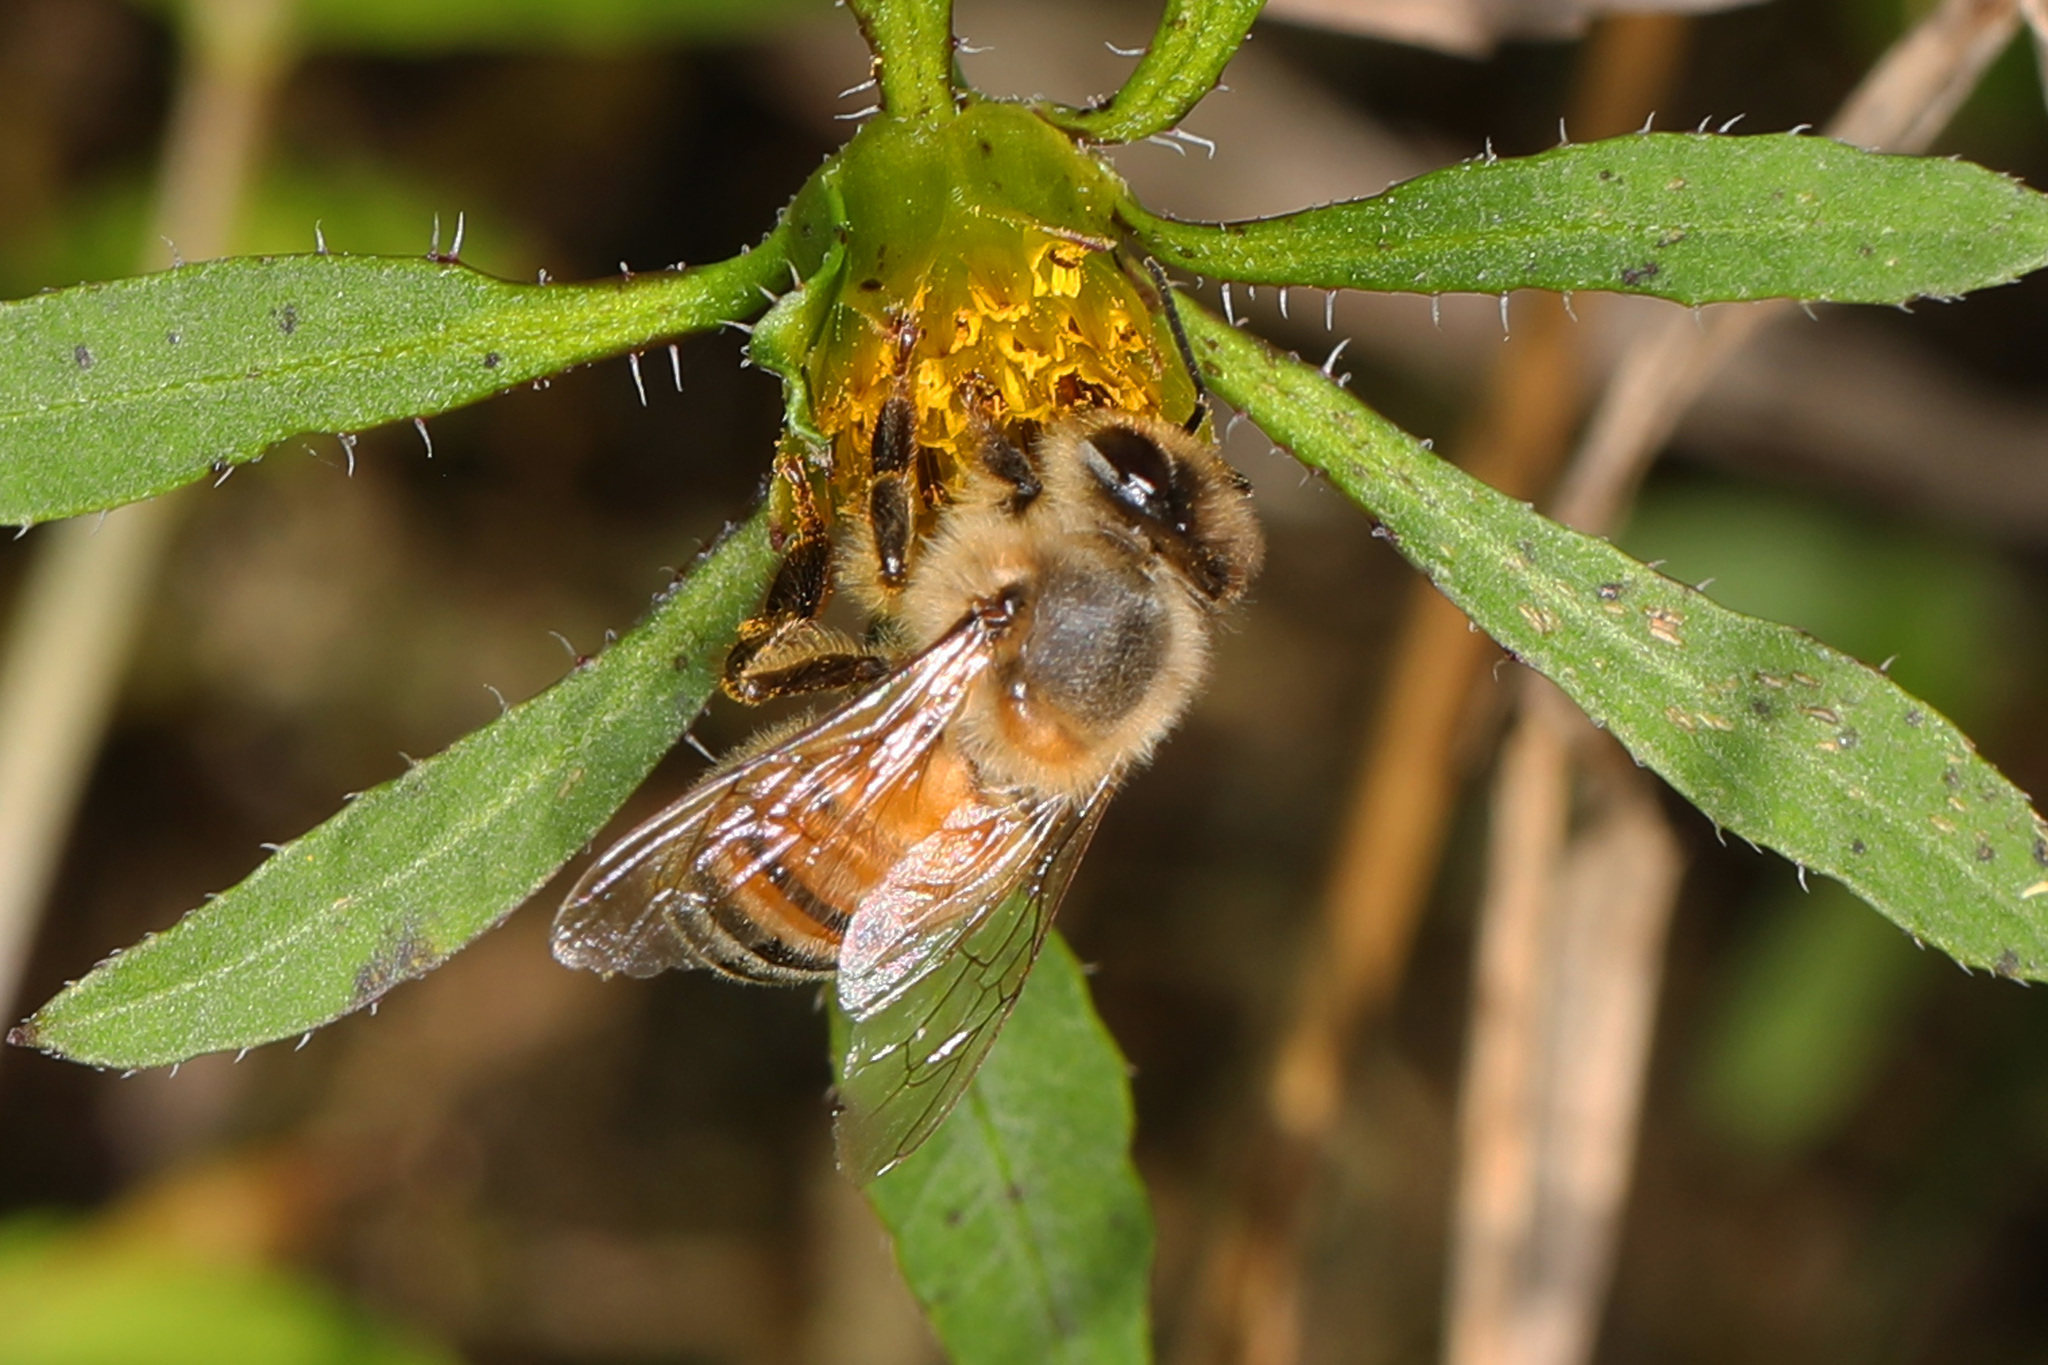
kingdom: Animalia
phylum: Arthropoda
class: Insecta
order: Hymenoptera
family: Apidae
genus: Apis
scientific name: Apis mellifera
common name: Honey bee
